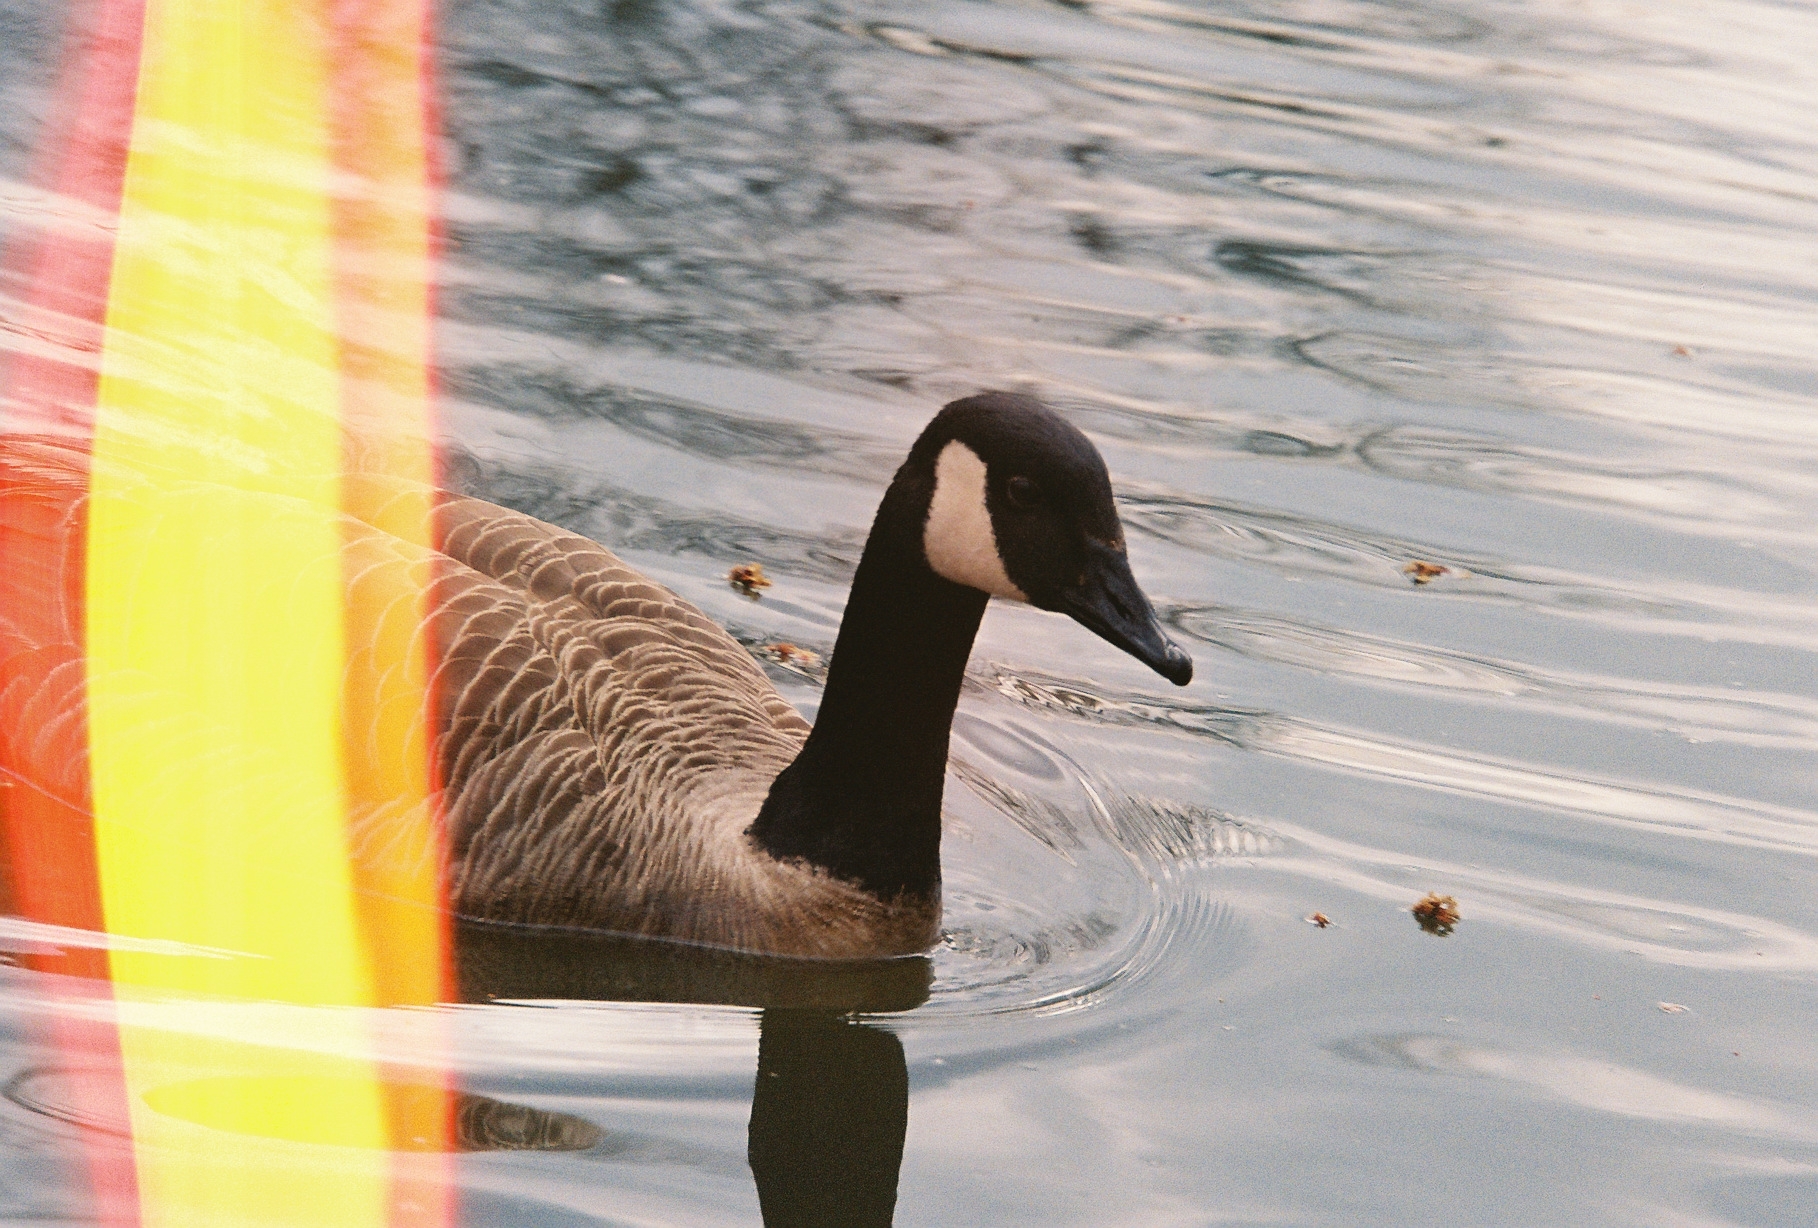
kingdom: Animalia
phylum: Chordata
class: Aves
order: Anseriformes
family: Anatidae
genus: Branta
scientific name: Branta canadensis
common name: Canada goose
